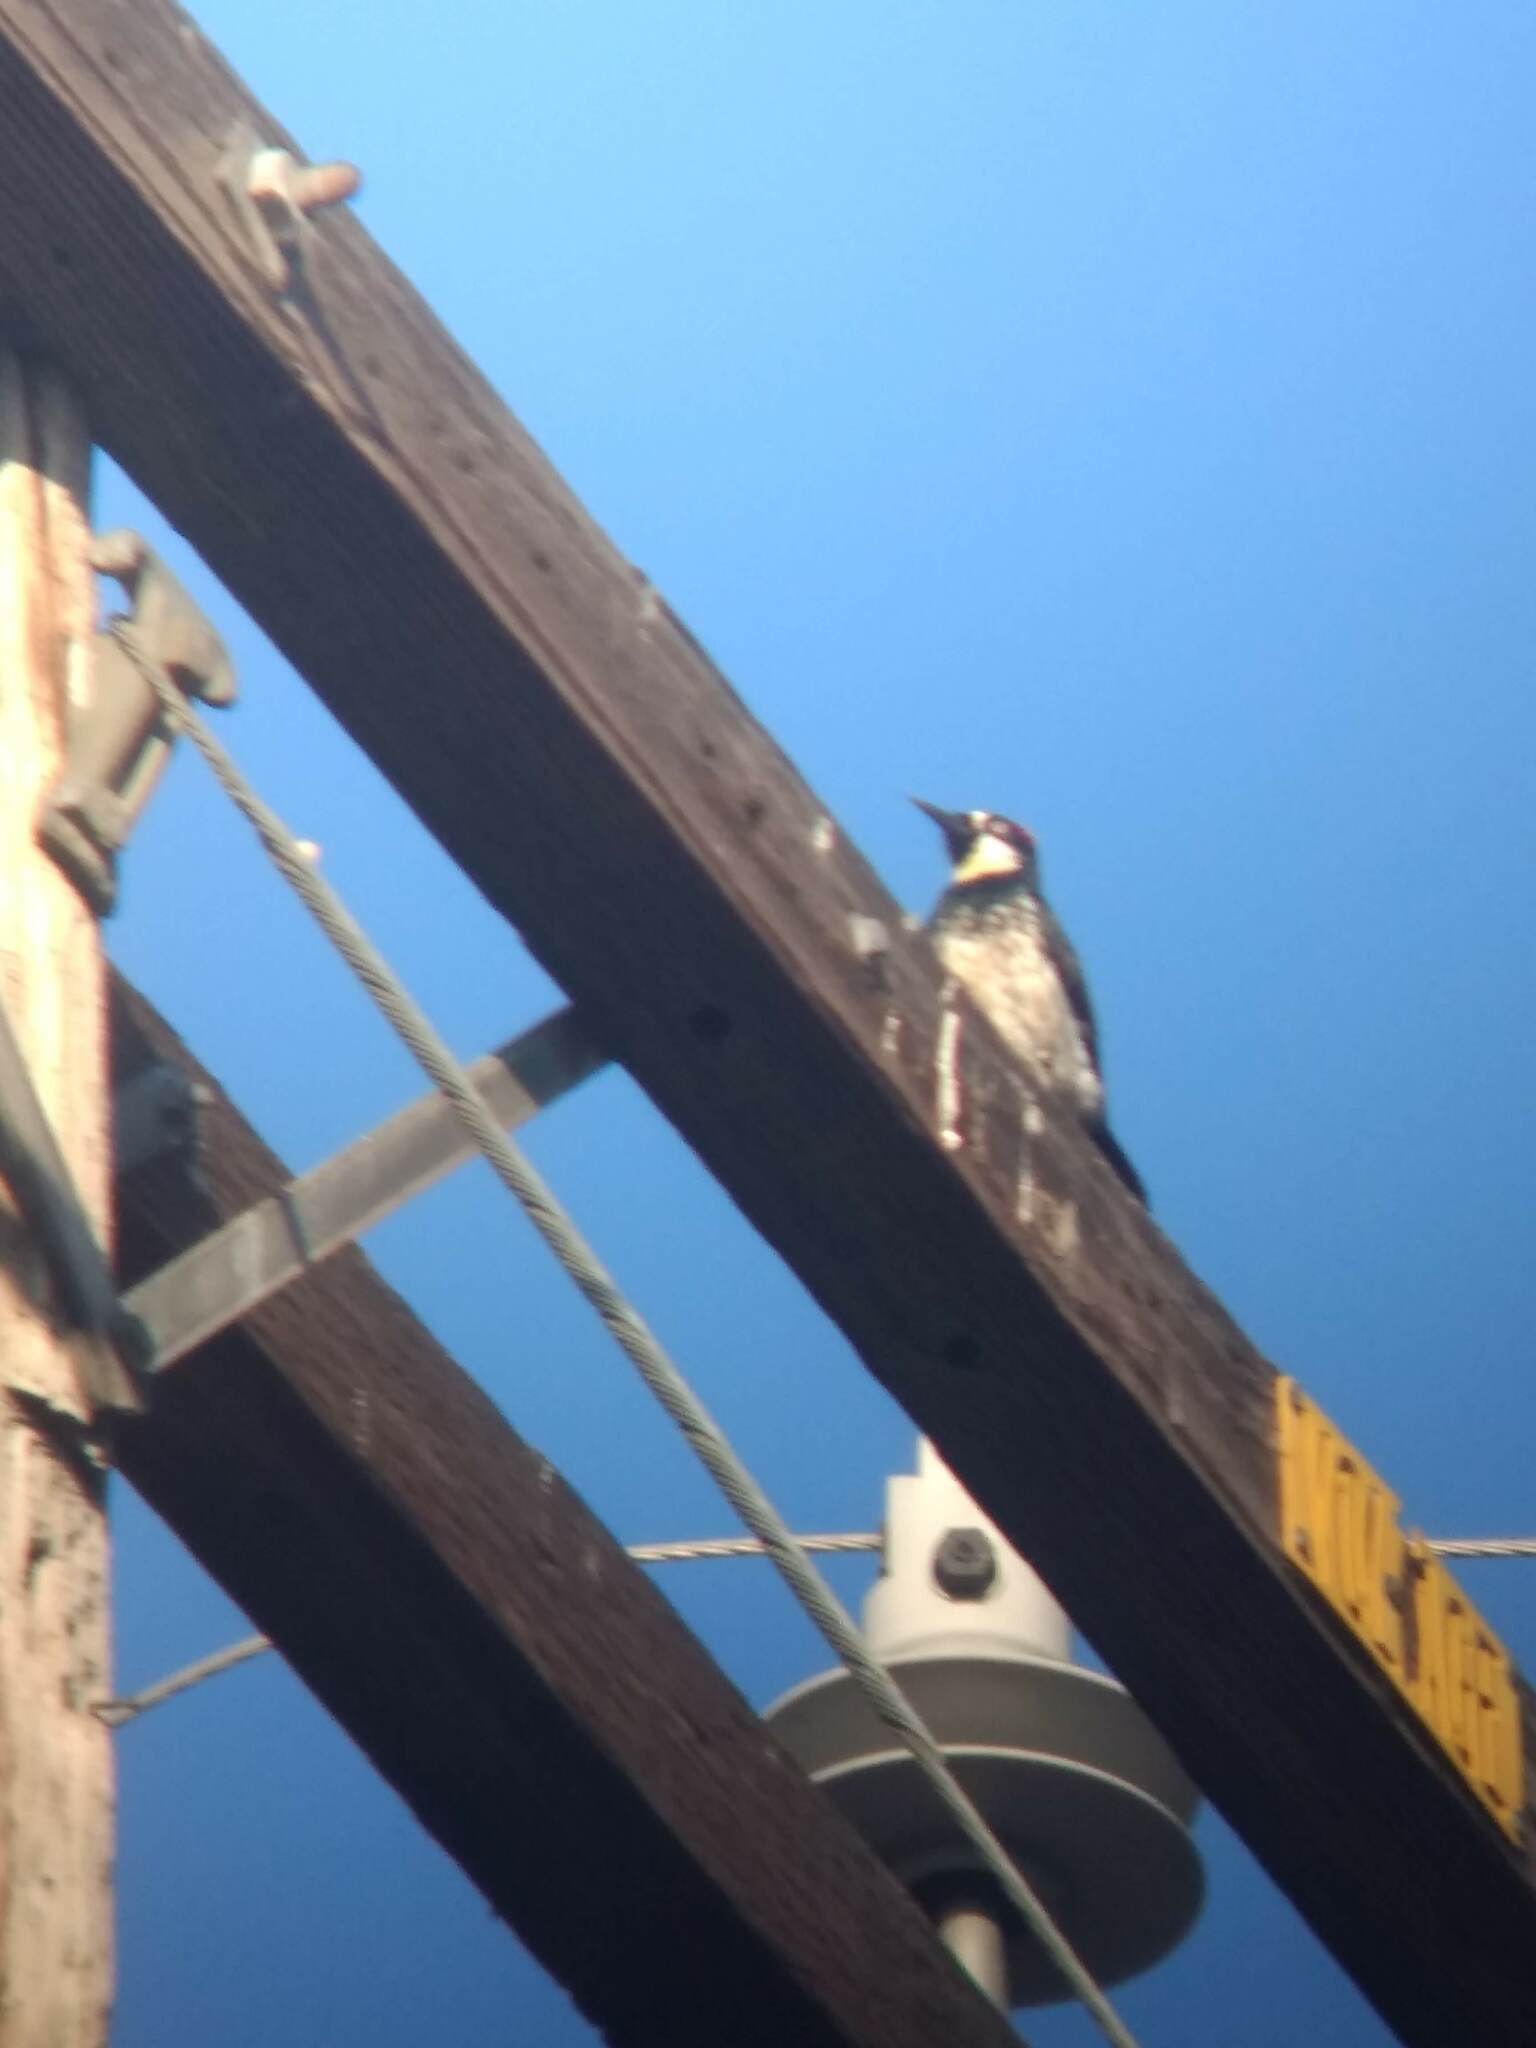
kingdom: Animalia
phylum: Chordata
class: Aves
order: Piciformes
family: Picidae
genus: Melanerpes
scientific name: Melanerpes formicivorus
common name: Acorn woodpecker
